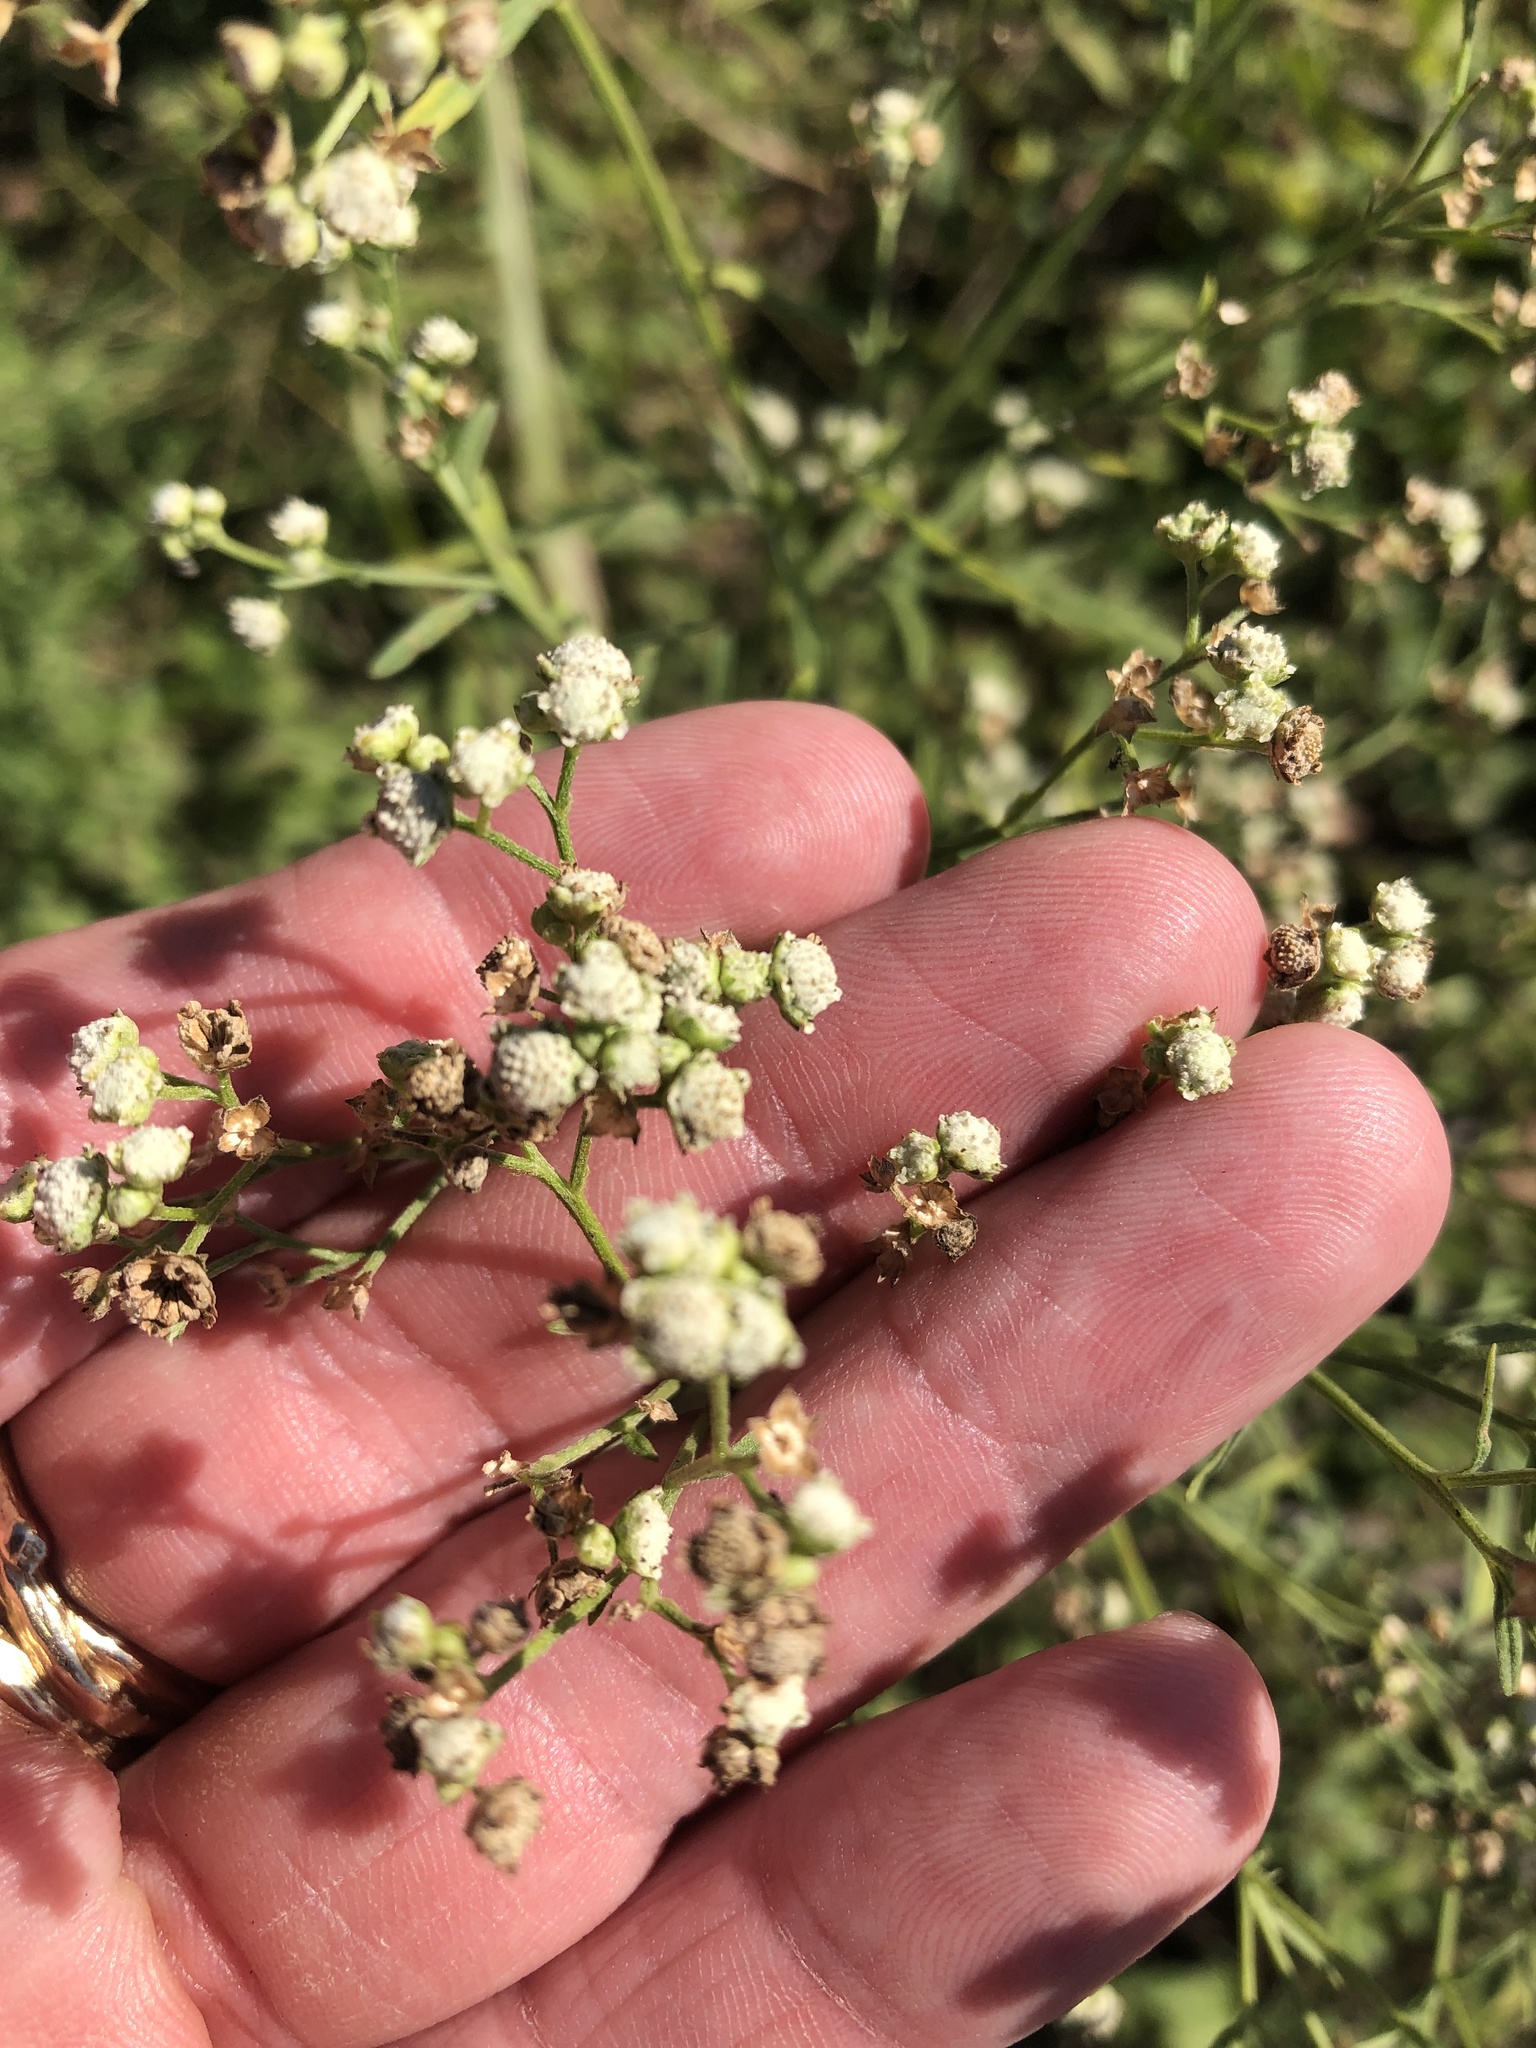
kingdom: Plantae
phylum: Tracheophyta
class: Magnoliopsida
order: Asterales
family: Asteraceae
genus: Parthenium
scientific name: Parthenium hysterophorus
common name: Santa maria feverfew
